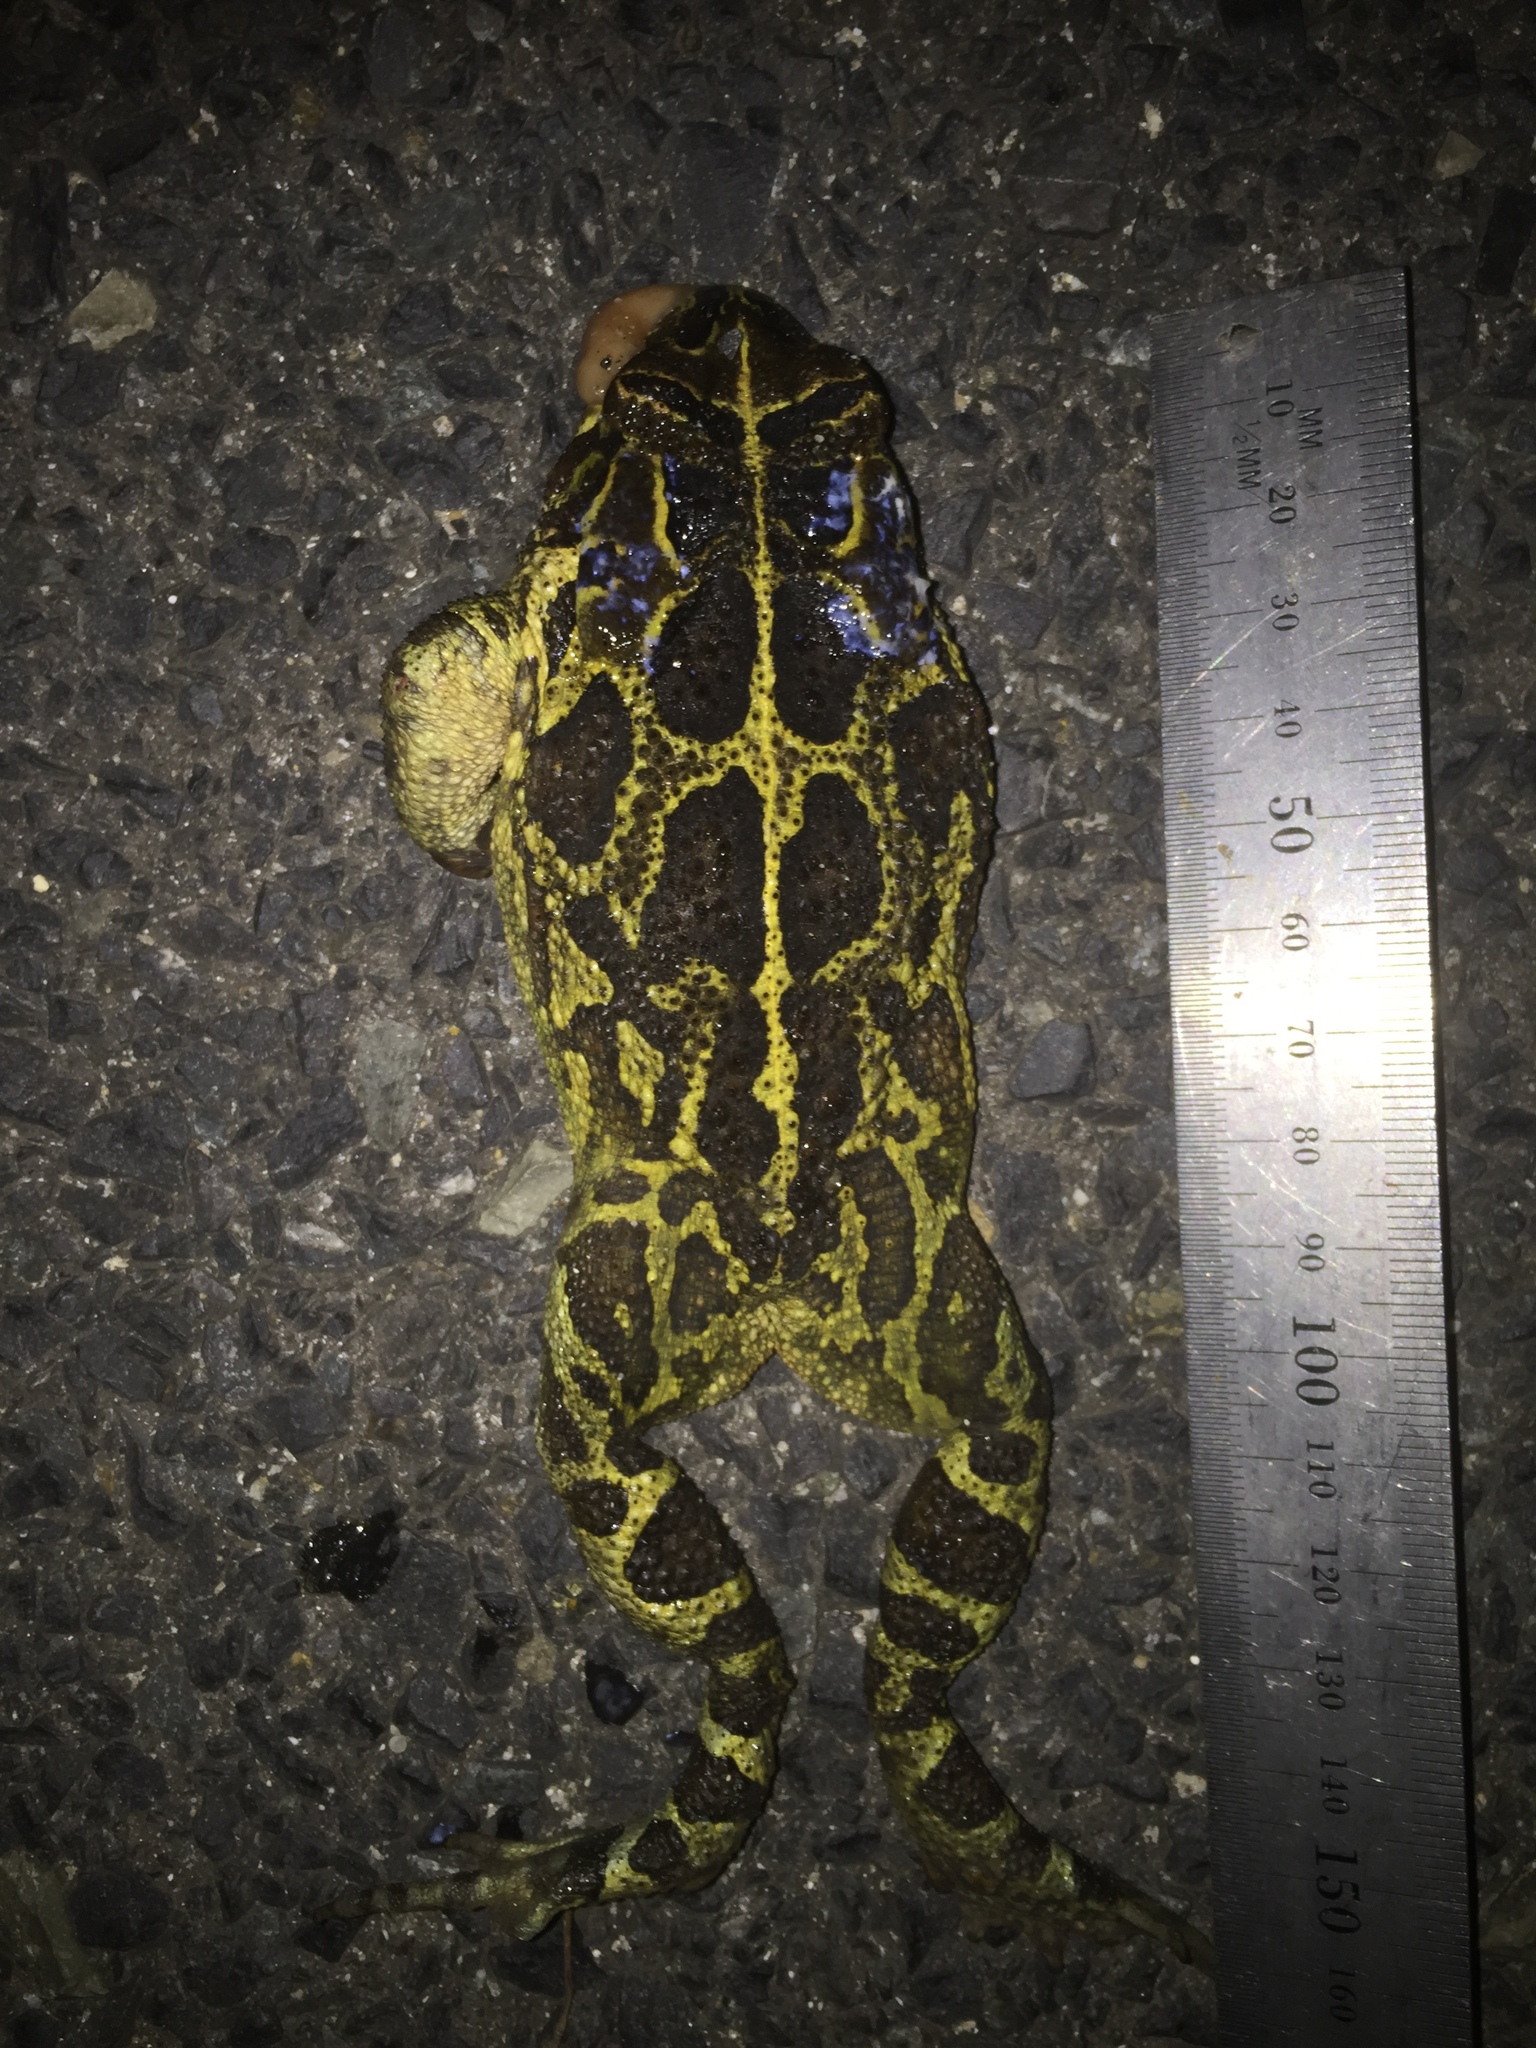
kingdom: Animalia
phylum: Chordata
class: Amphibia
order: Anura
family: Bufonidae
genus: Sclerophrys
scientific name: Sclerophrys pantherina
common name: Panther toad
